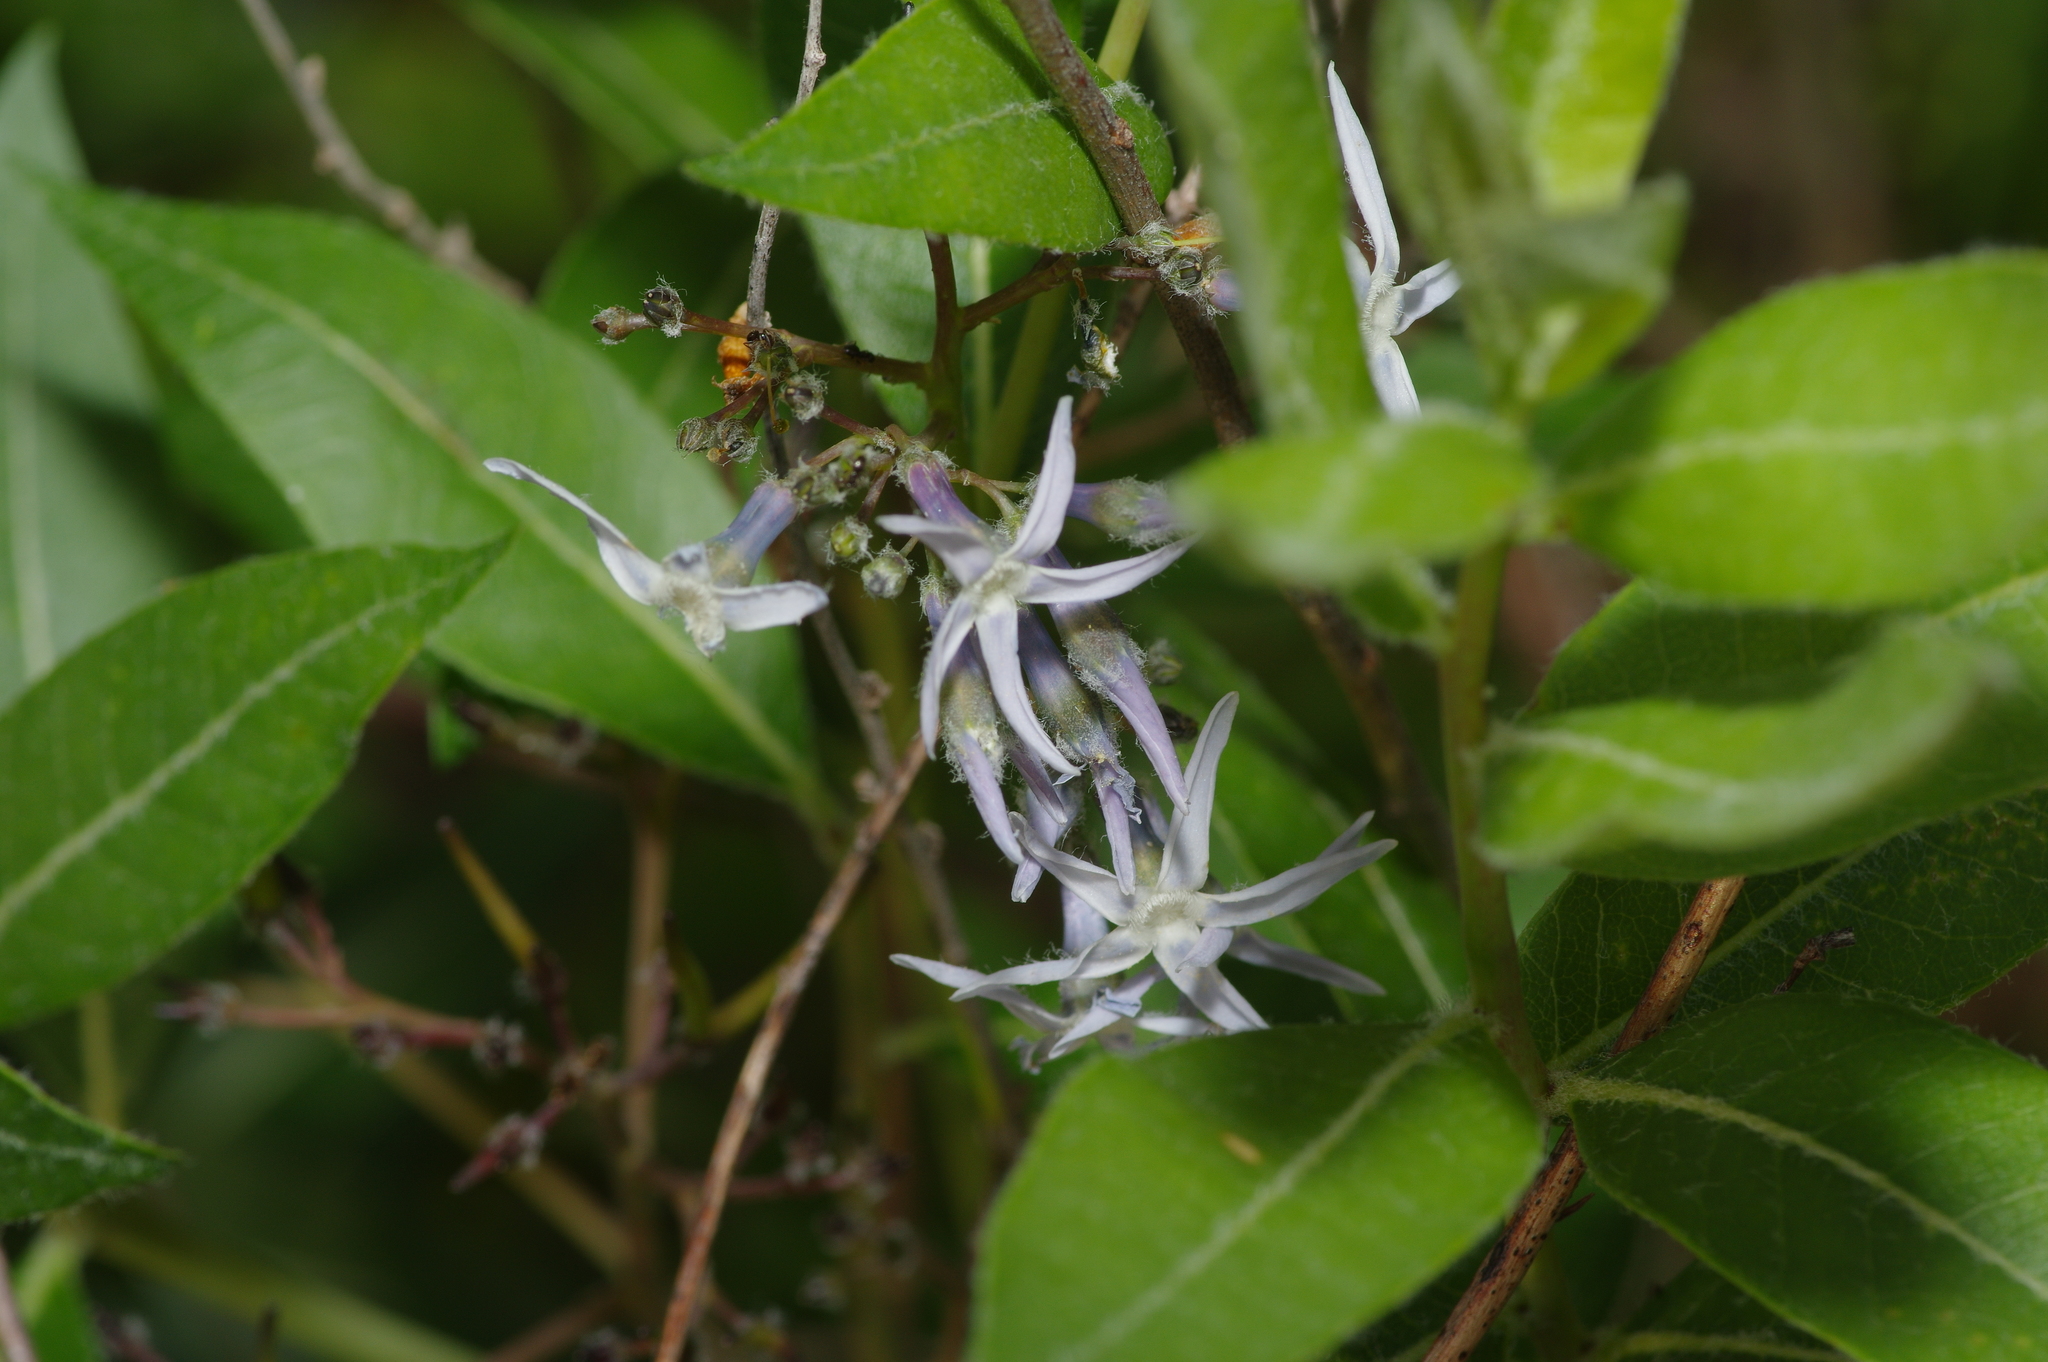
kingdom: Plantae
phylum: Tracheophyta
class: Magnoliopsida
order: Gentianales
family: Apocynaceae
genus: Amsonia
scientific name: Amsonia tabernaemontana
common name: Texas-star
